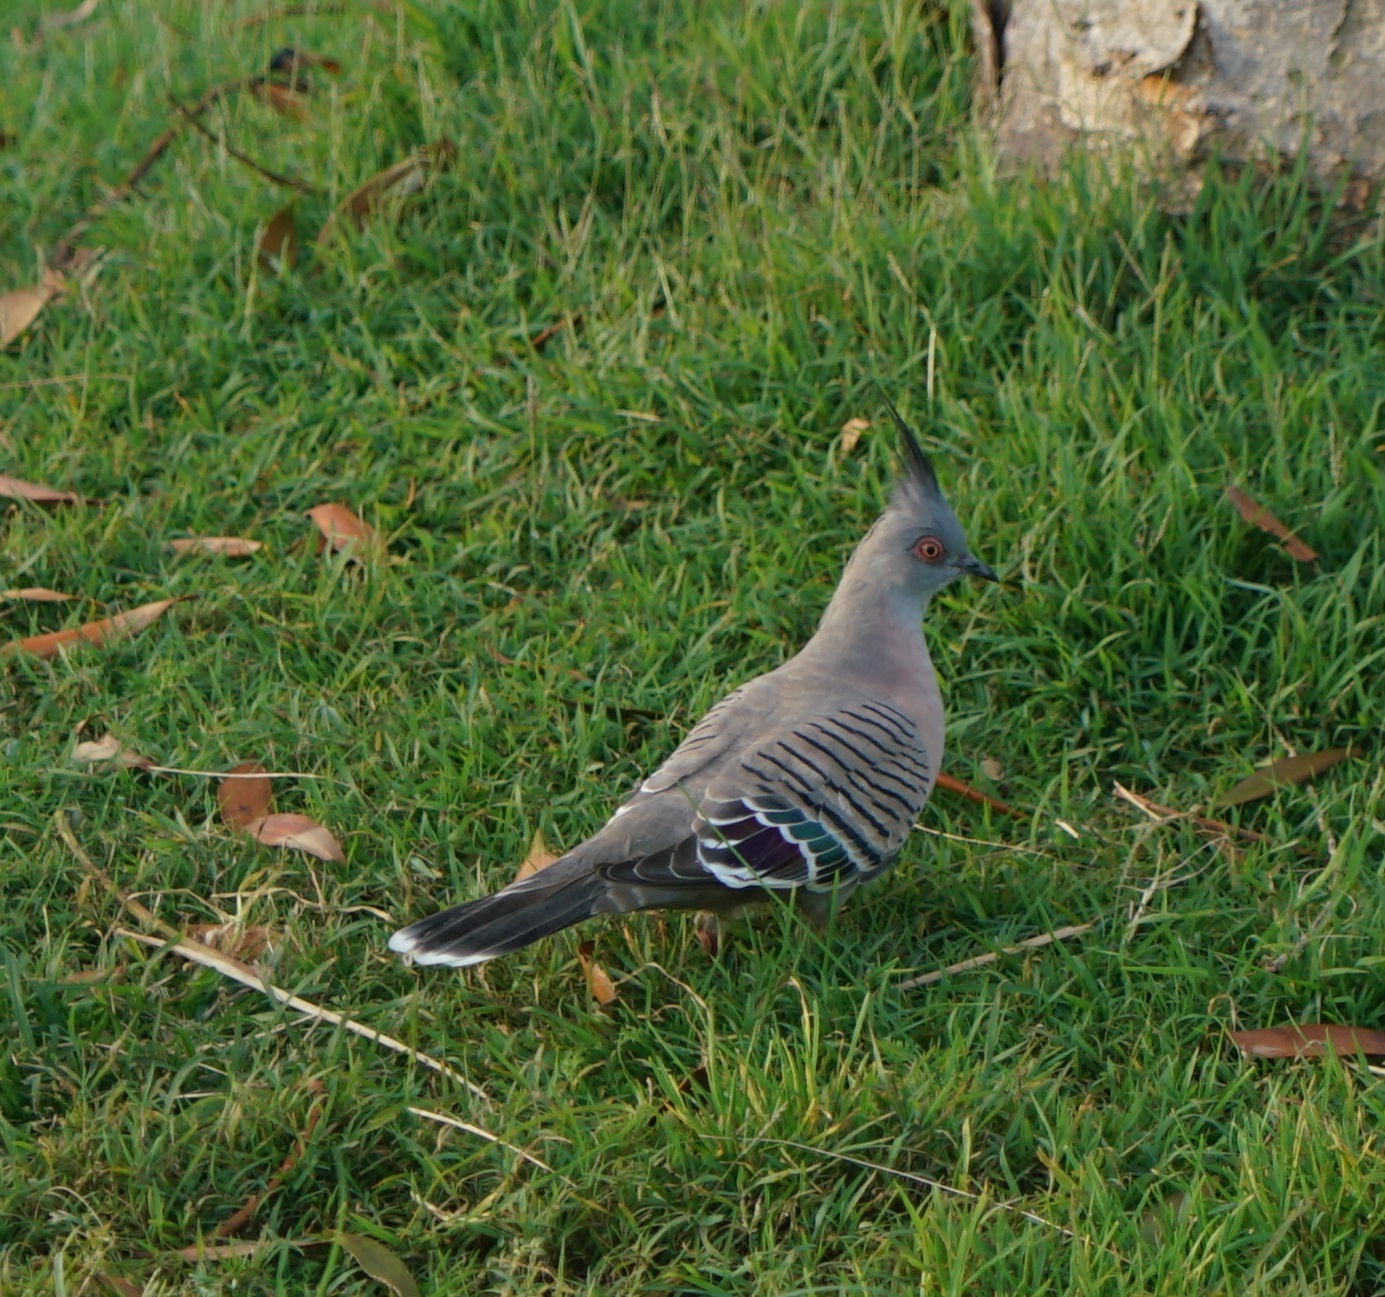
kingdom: Animalia
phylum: Chordata
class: Aves
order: Columbiformes
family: Columbidae
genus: Ocyphaps
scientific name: Ocyphaps lophotes
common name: Crested pigeon
